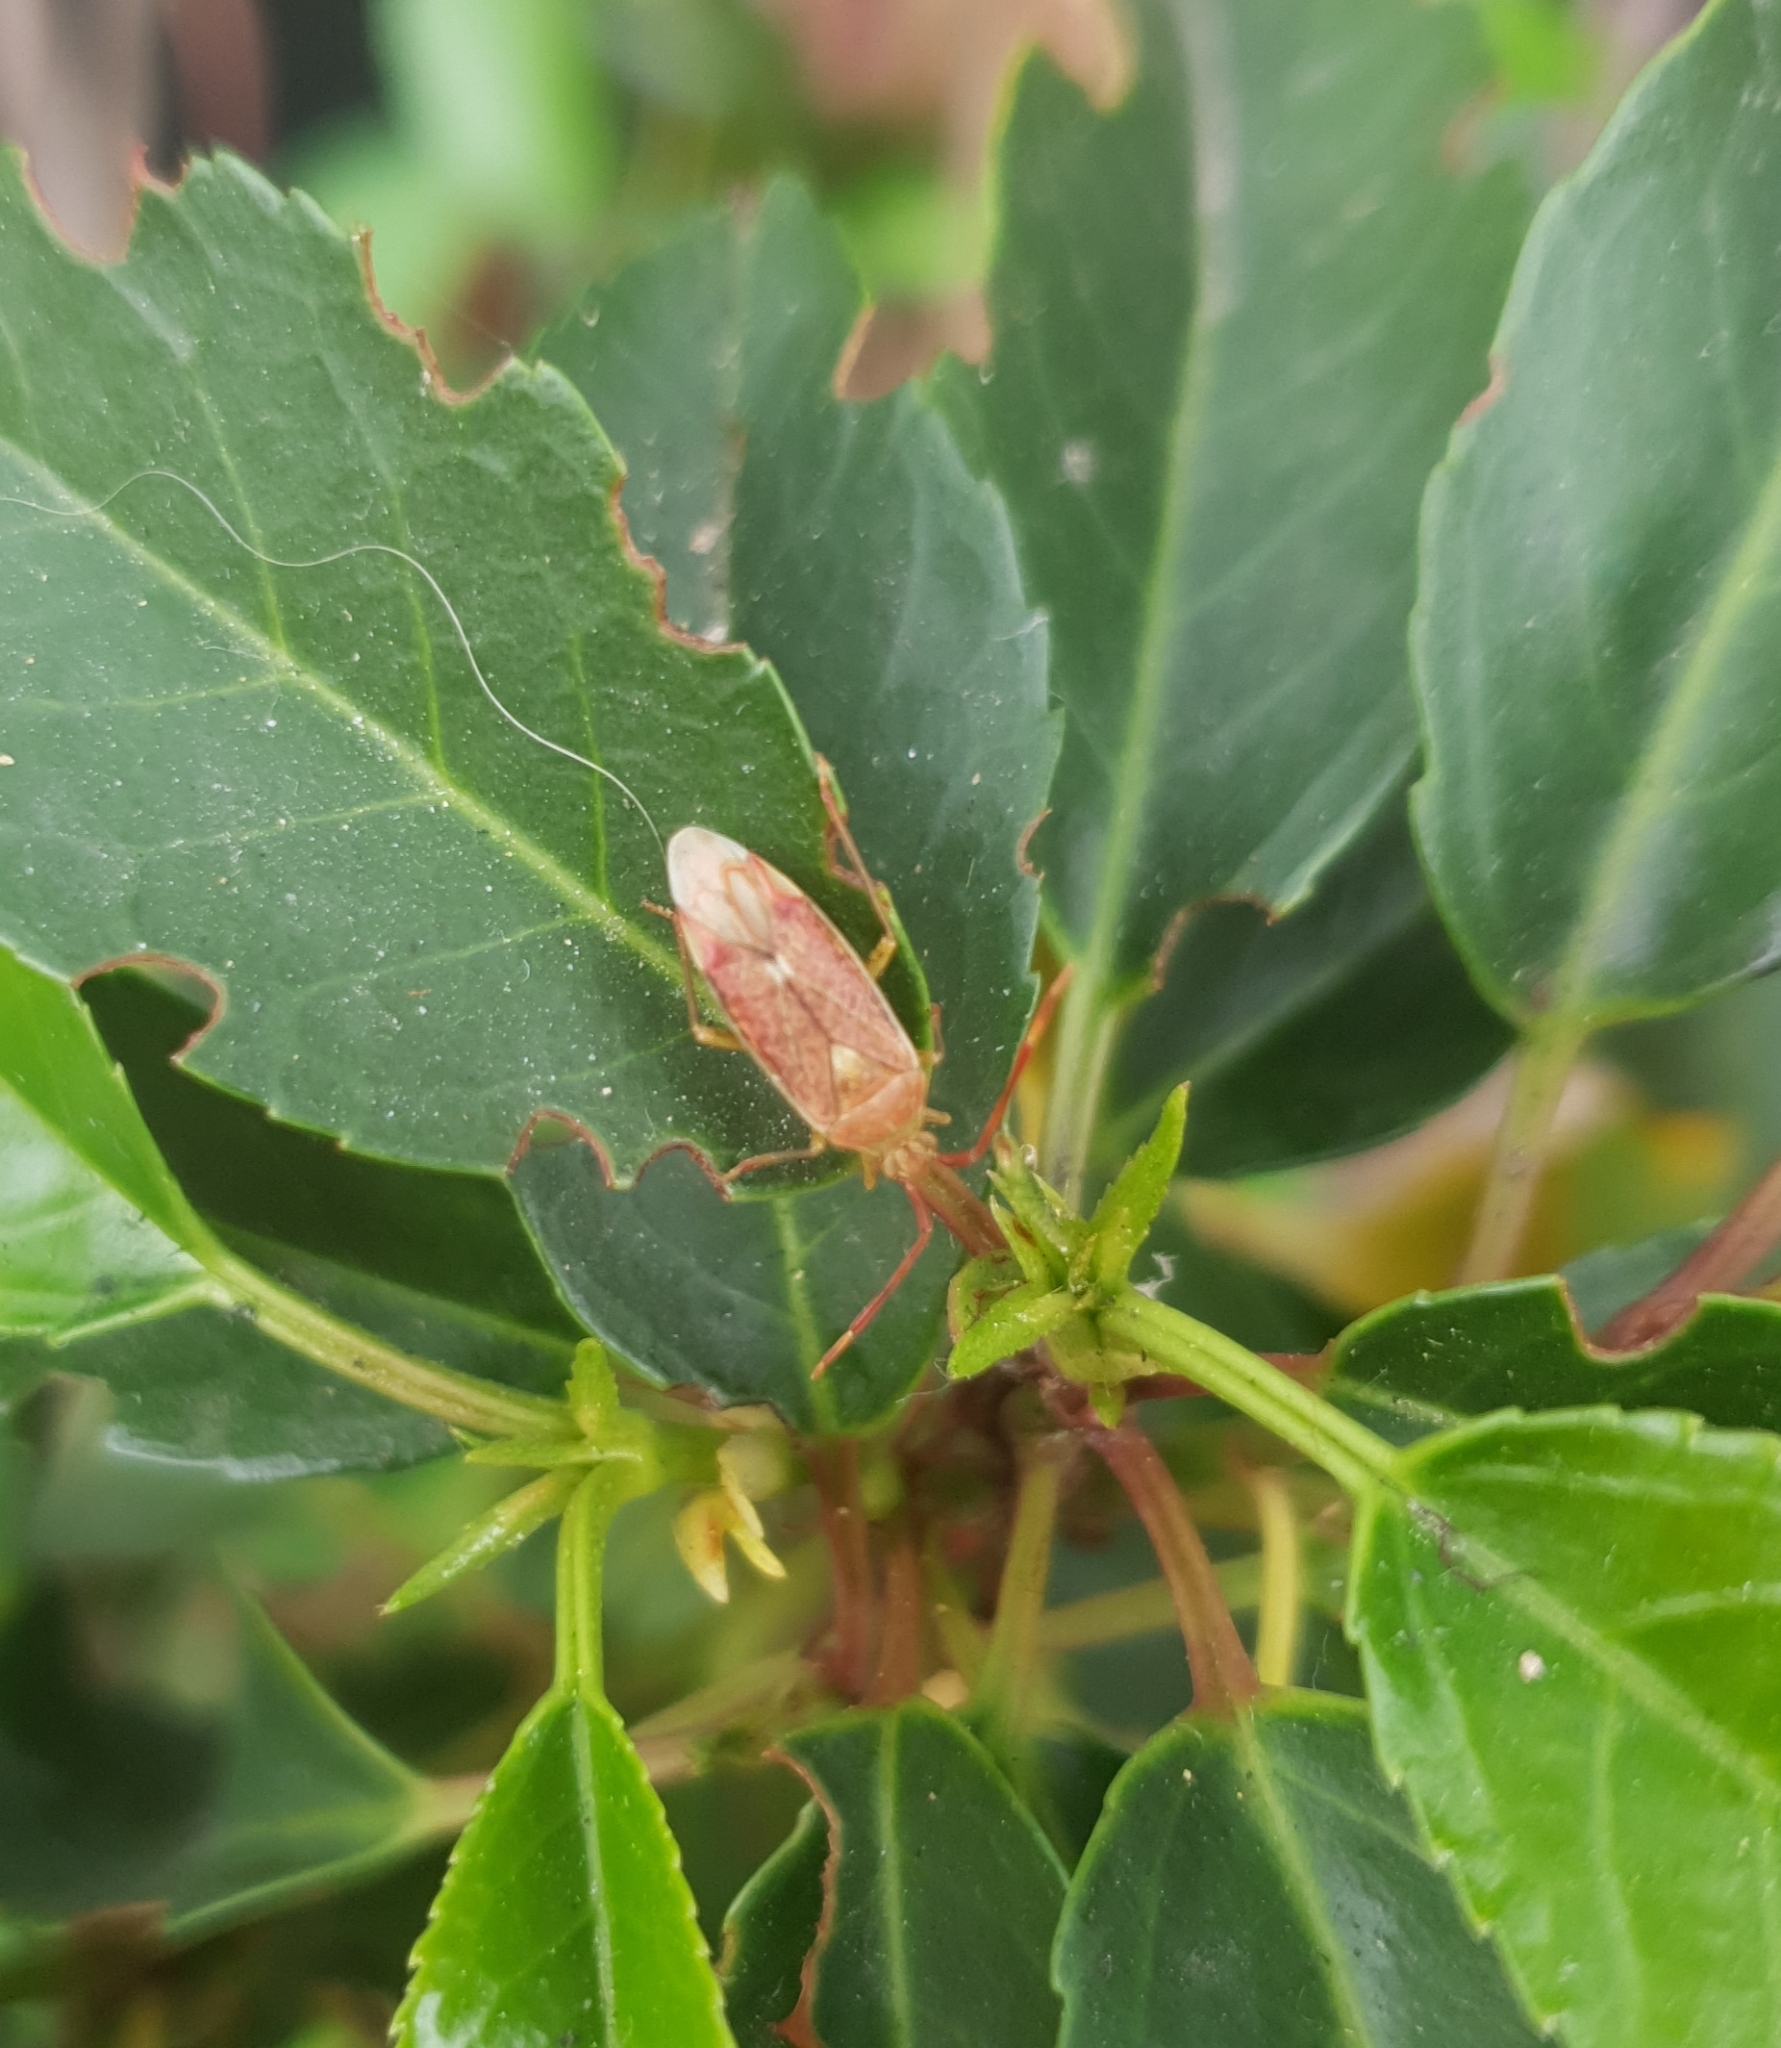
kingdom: Animalia
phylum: Arthropoda
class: Insecta
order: Hemiptera
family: Miridae
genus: Pantilius
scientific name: Pantilius tunicatus
